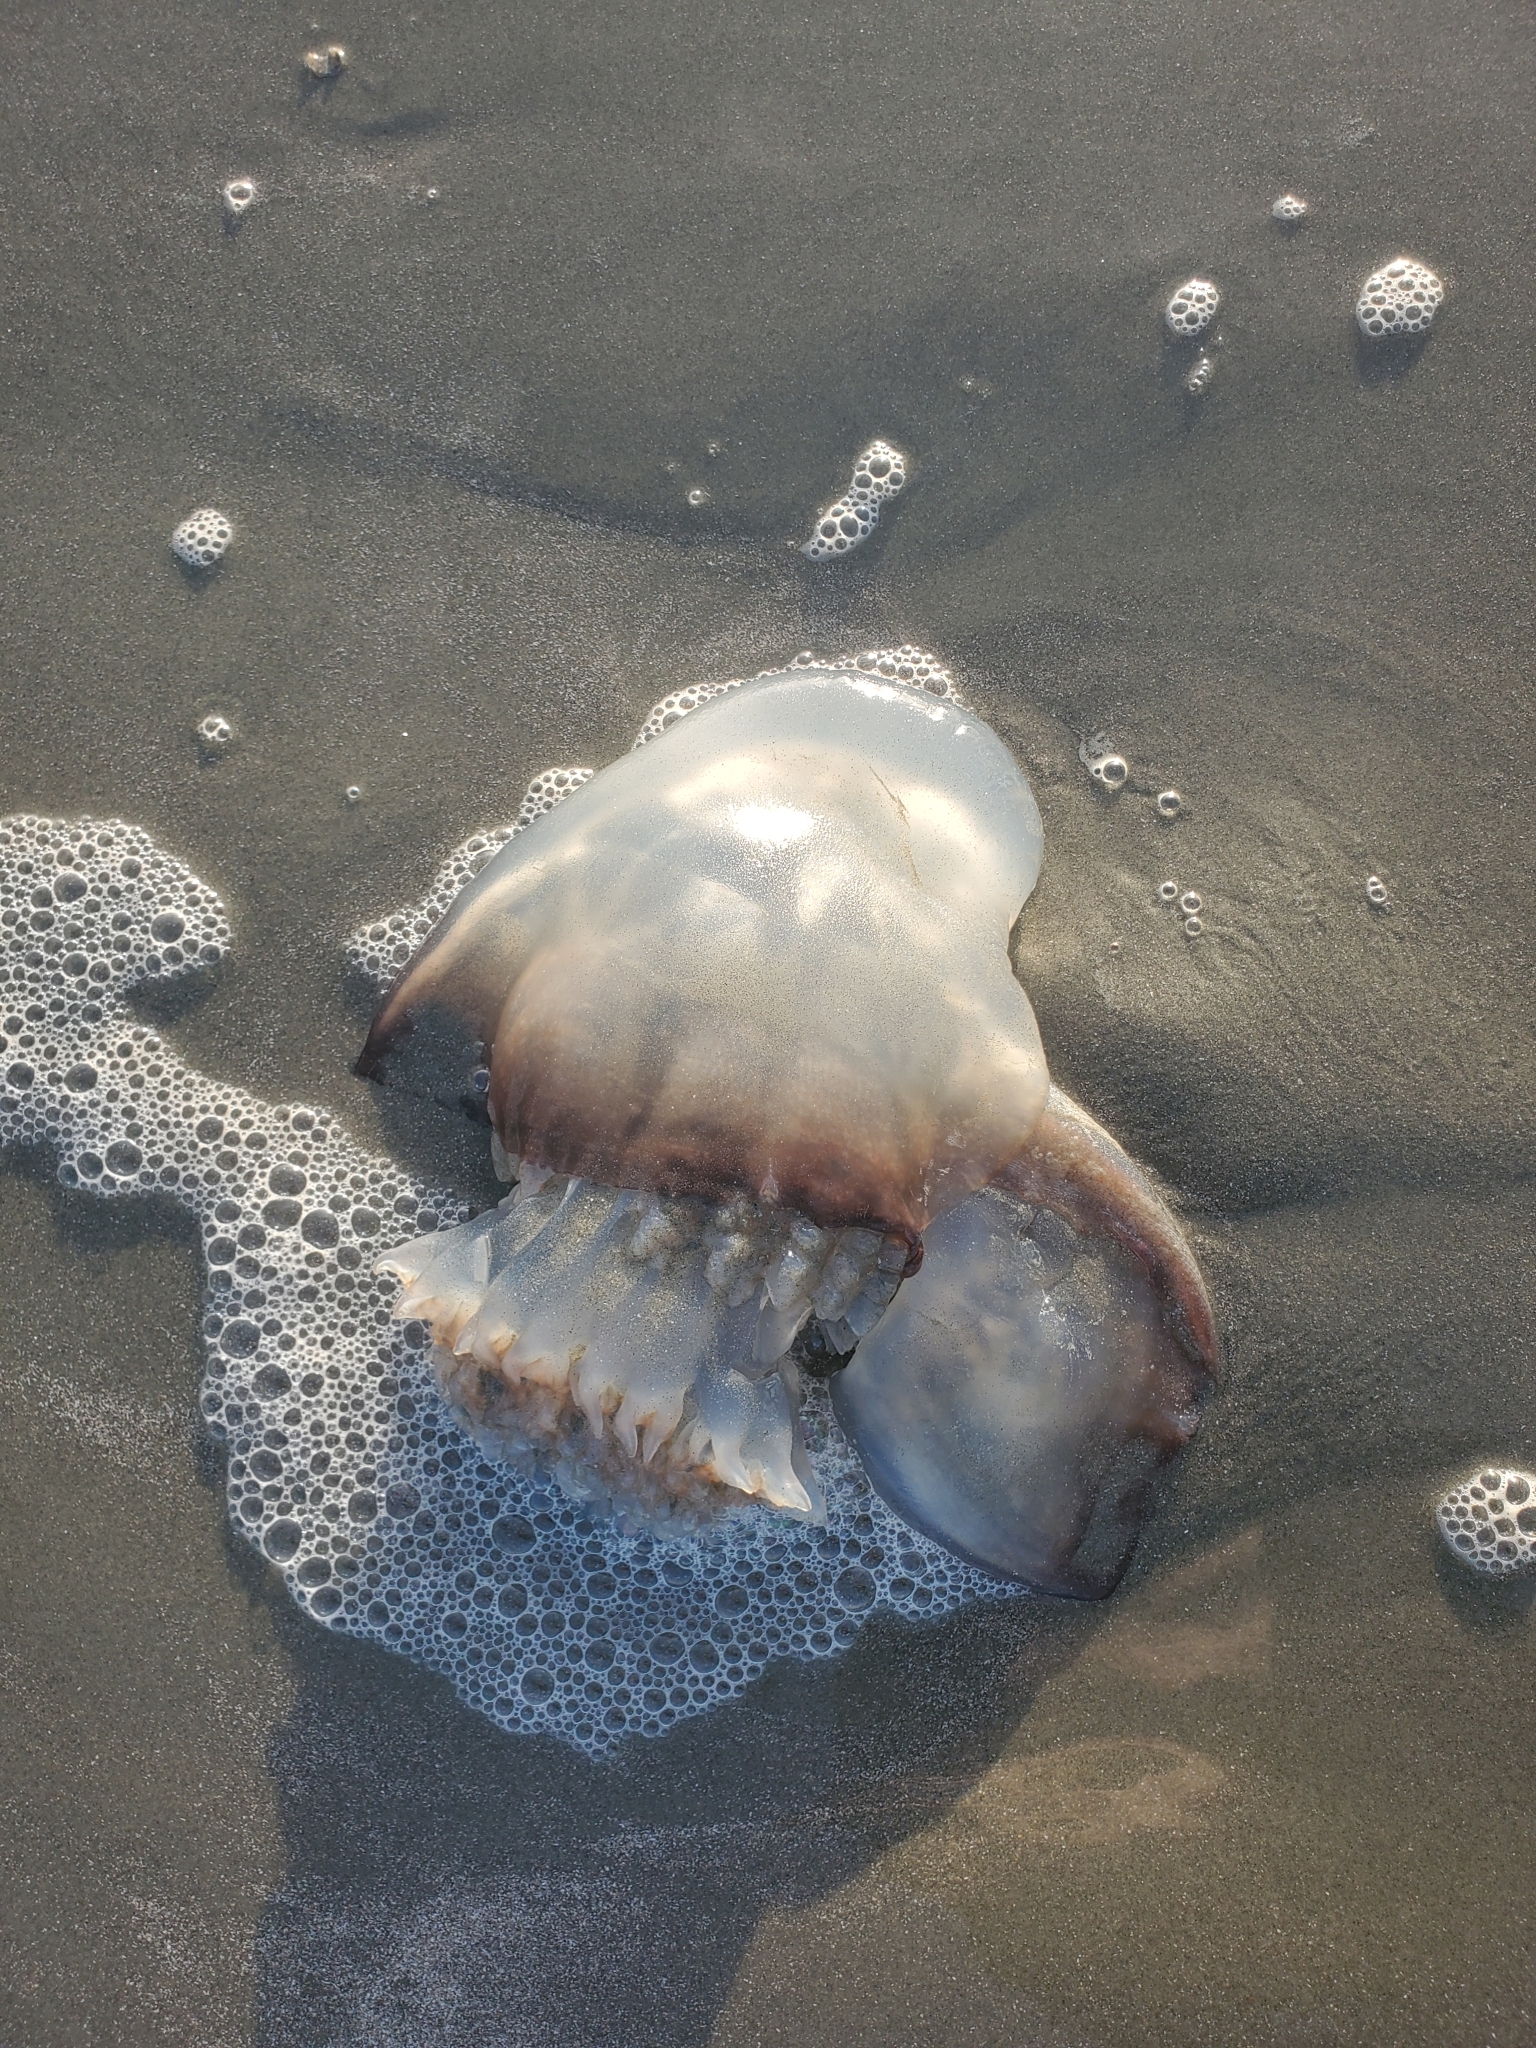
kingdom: Animalia
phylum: Cnidaria
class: Scyphozoa
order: Rhizostomeae
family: Stomolophidae
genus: Stomolophus
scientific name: Stomolophus meleagris
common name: Cabbagehead
